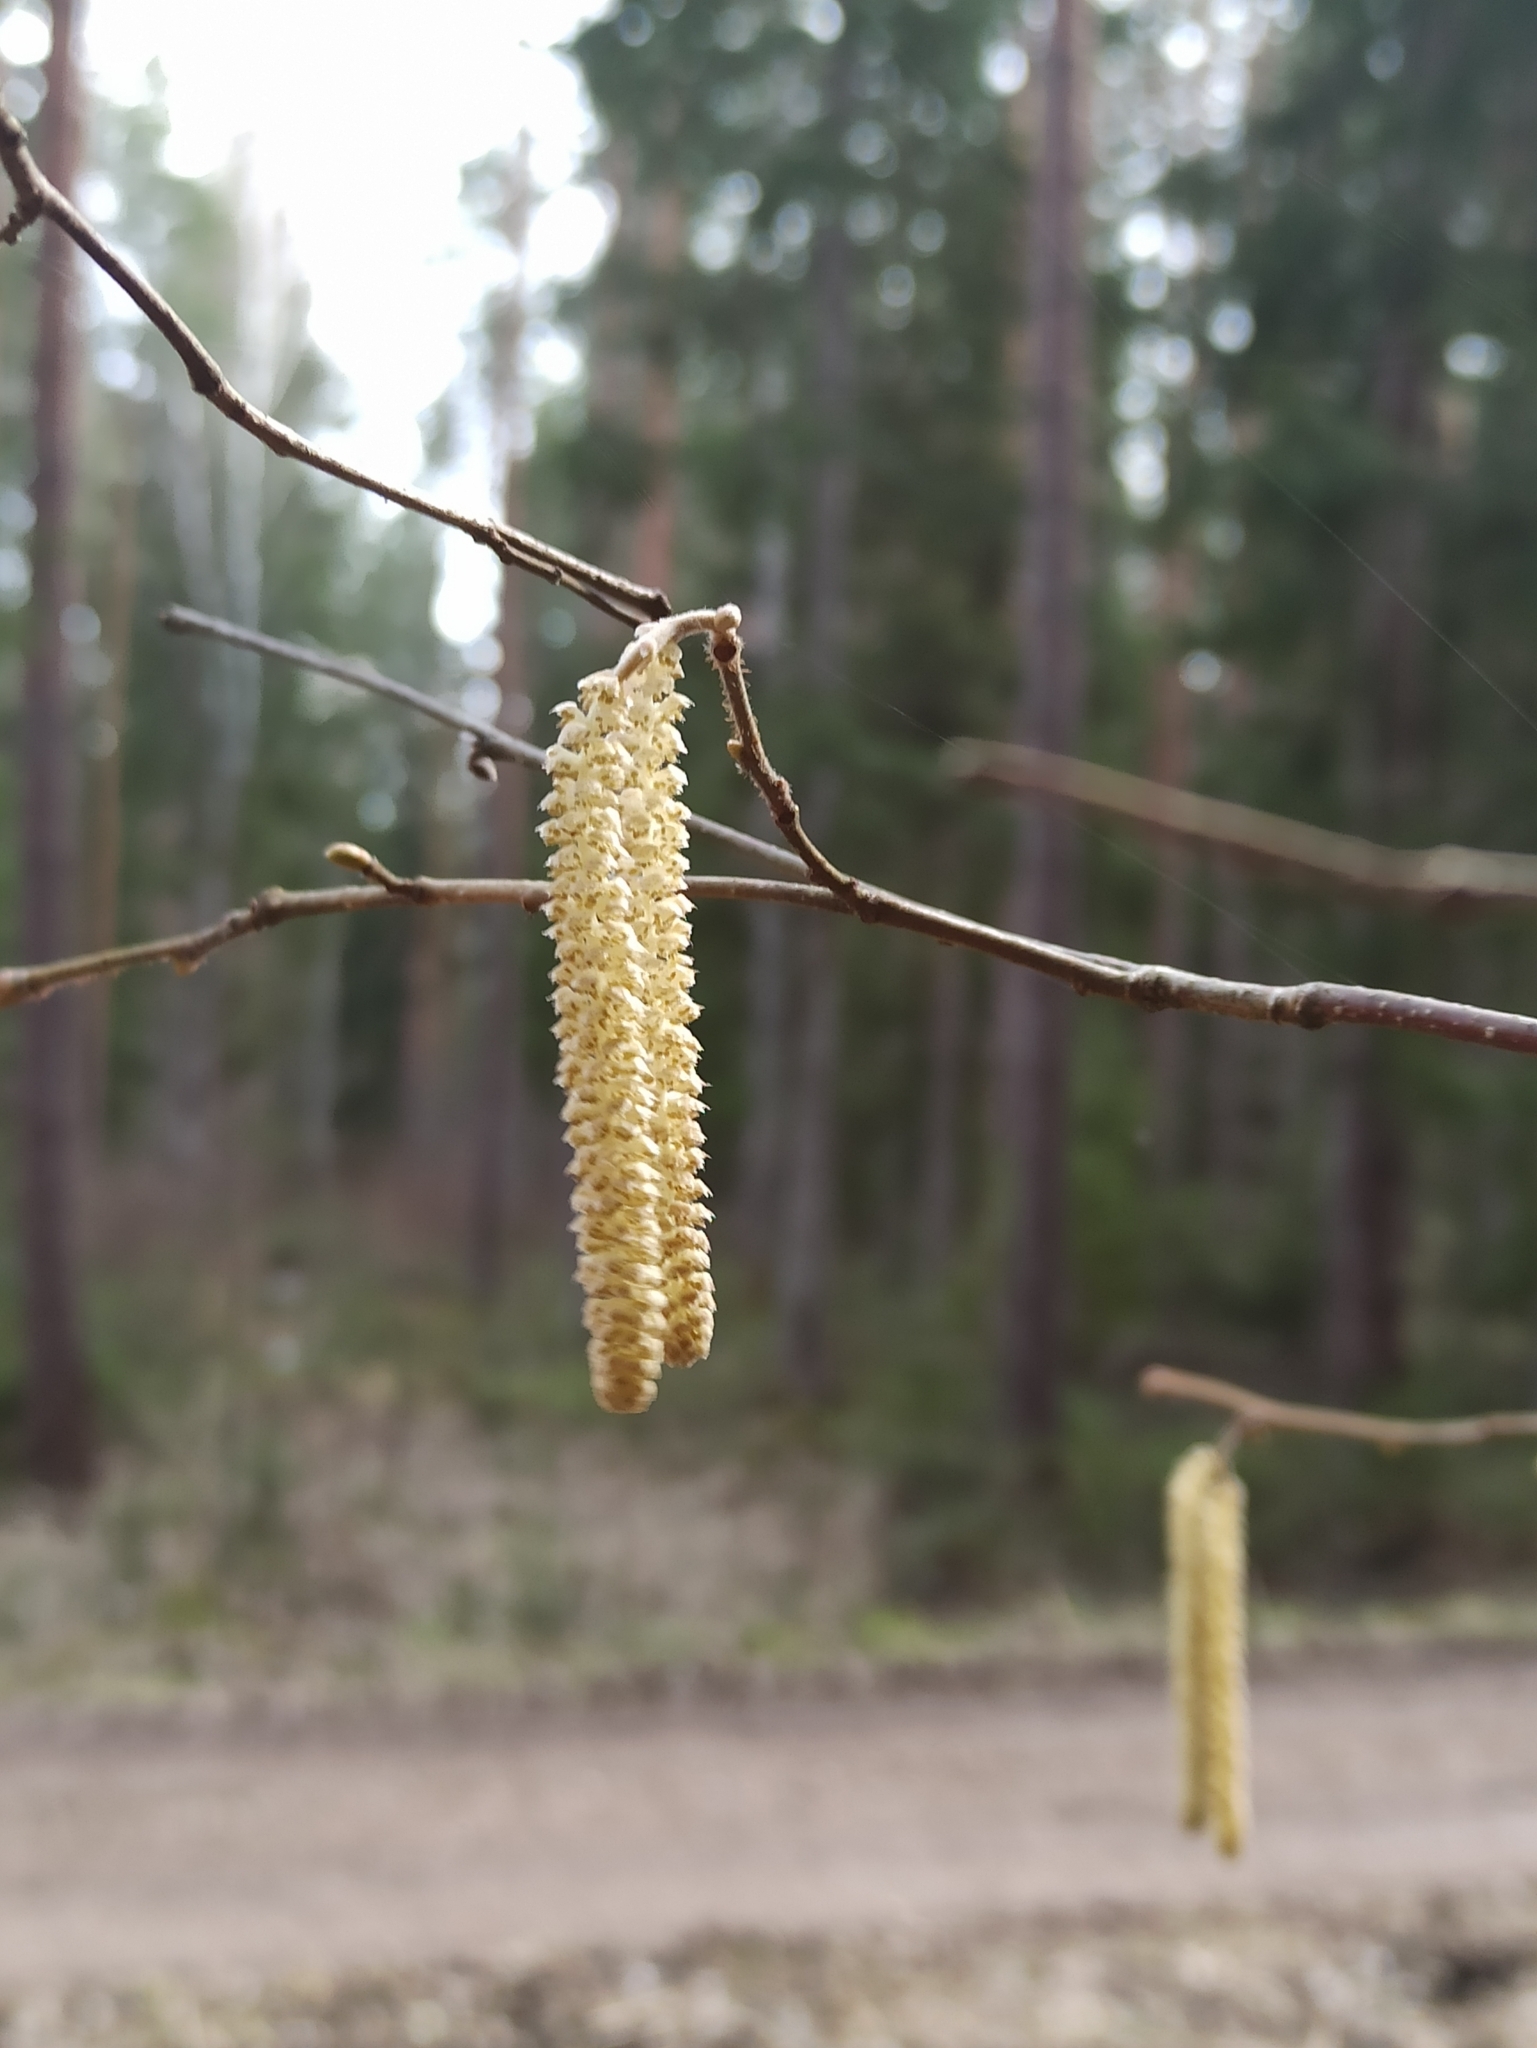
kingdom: Plantae
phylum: Tracheophyta
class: Magnoliopsida
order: Fagales
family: Betulaceae
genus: Corylus
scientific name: Corylus avellana
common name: European hazel
